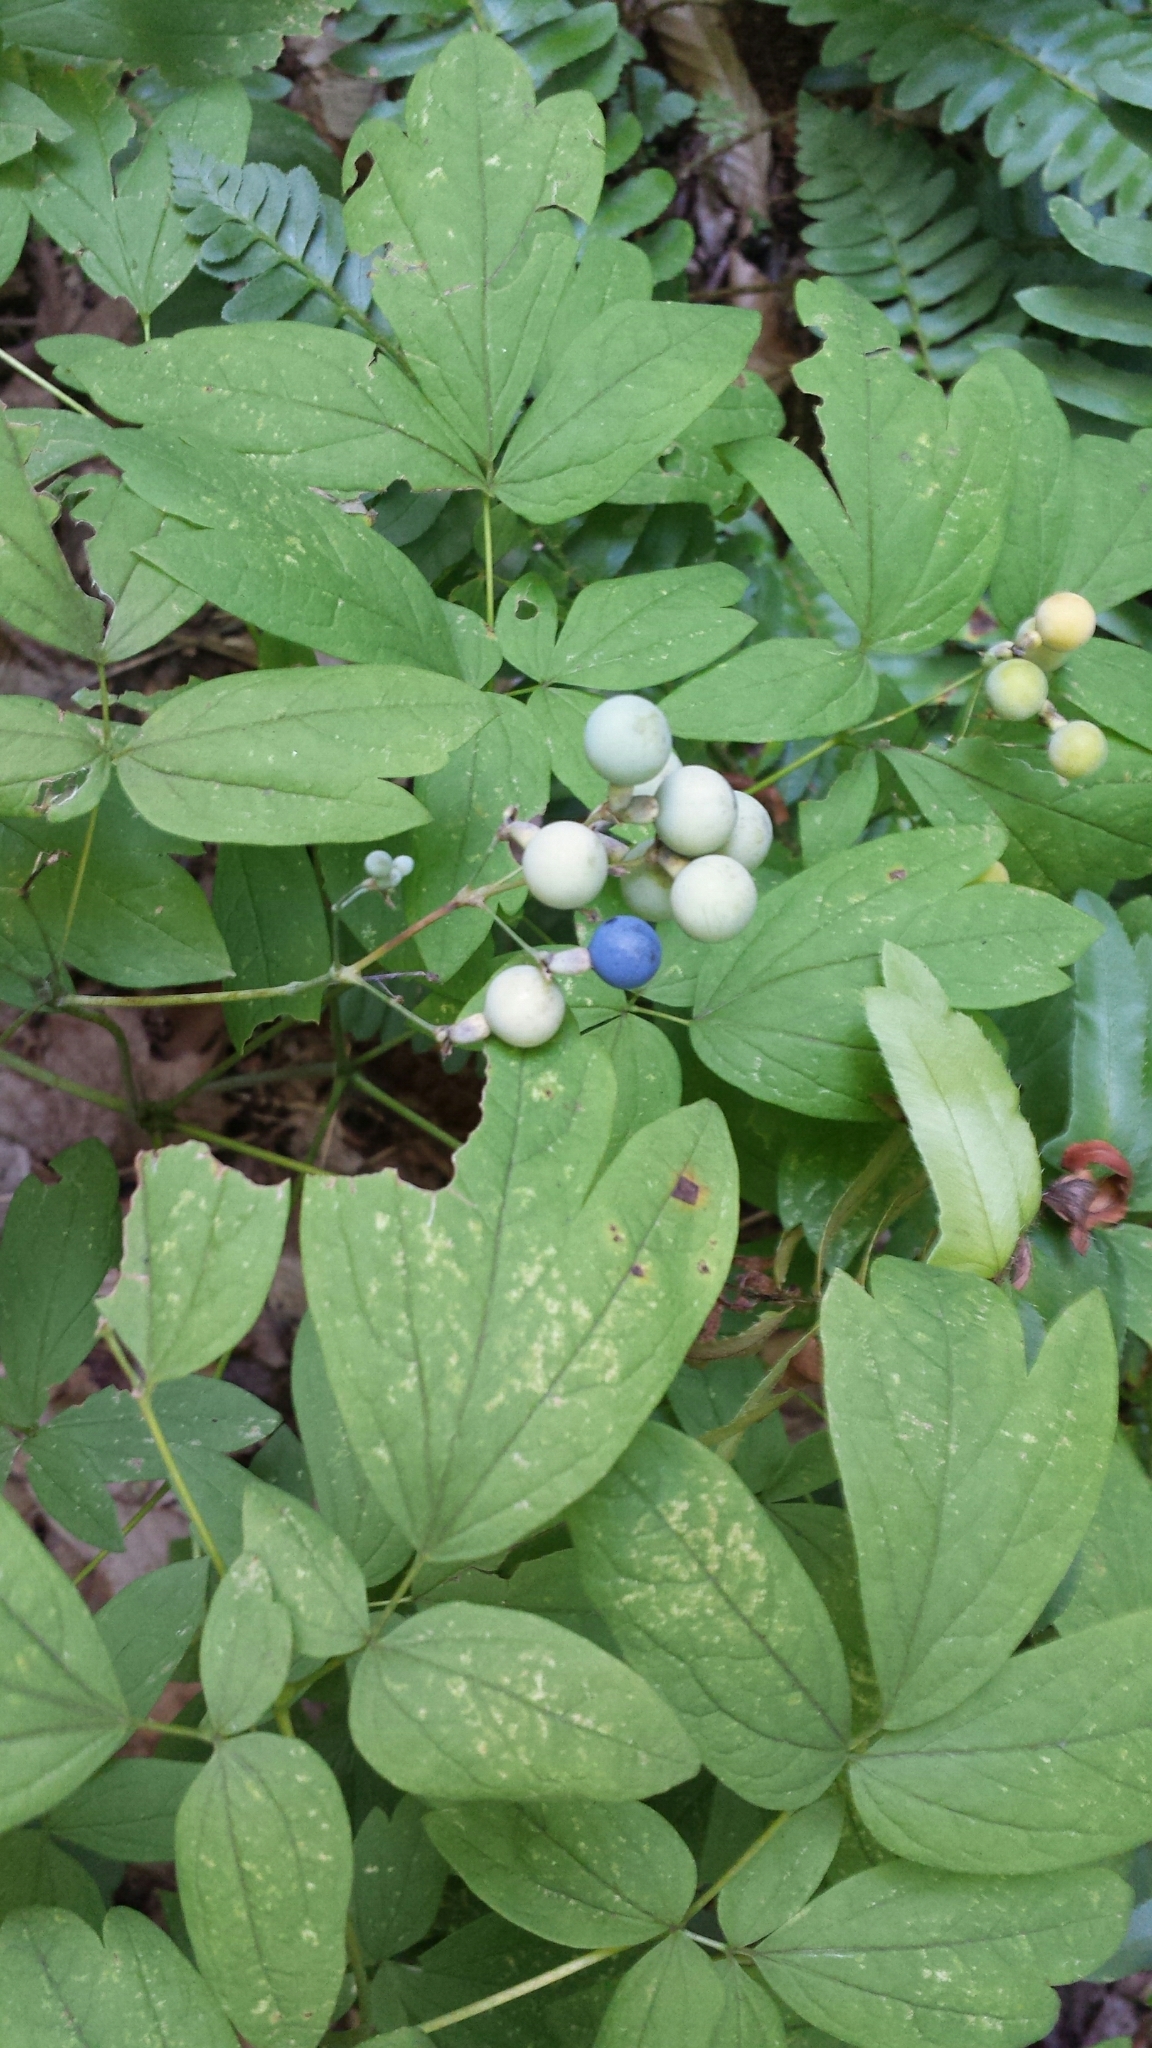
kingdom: Plantae
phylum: Tracheophyta
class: Magnoliopsida
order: Ranunculales
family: Berberidaceae
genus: Caulophyllum
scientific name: Caulophyllum thalictroides
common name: Blue cohosh
